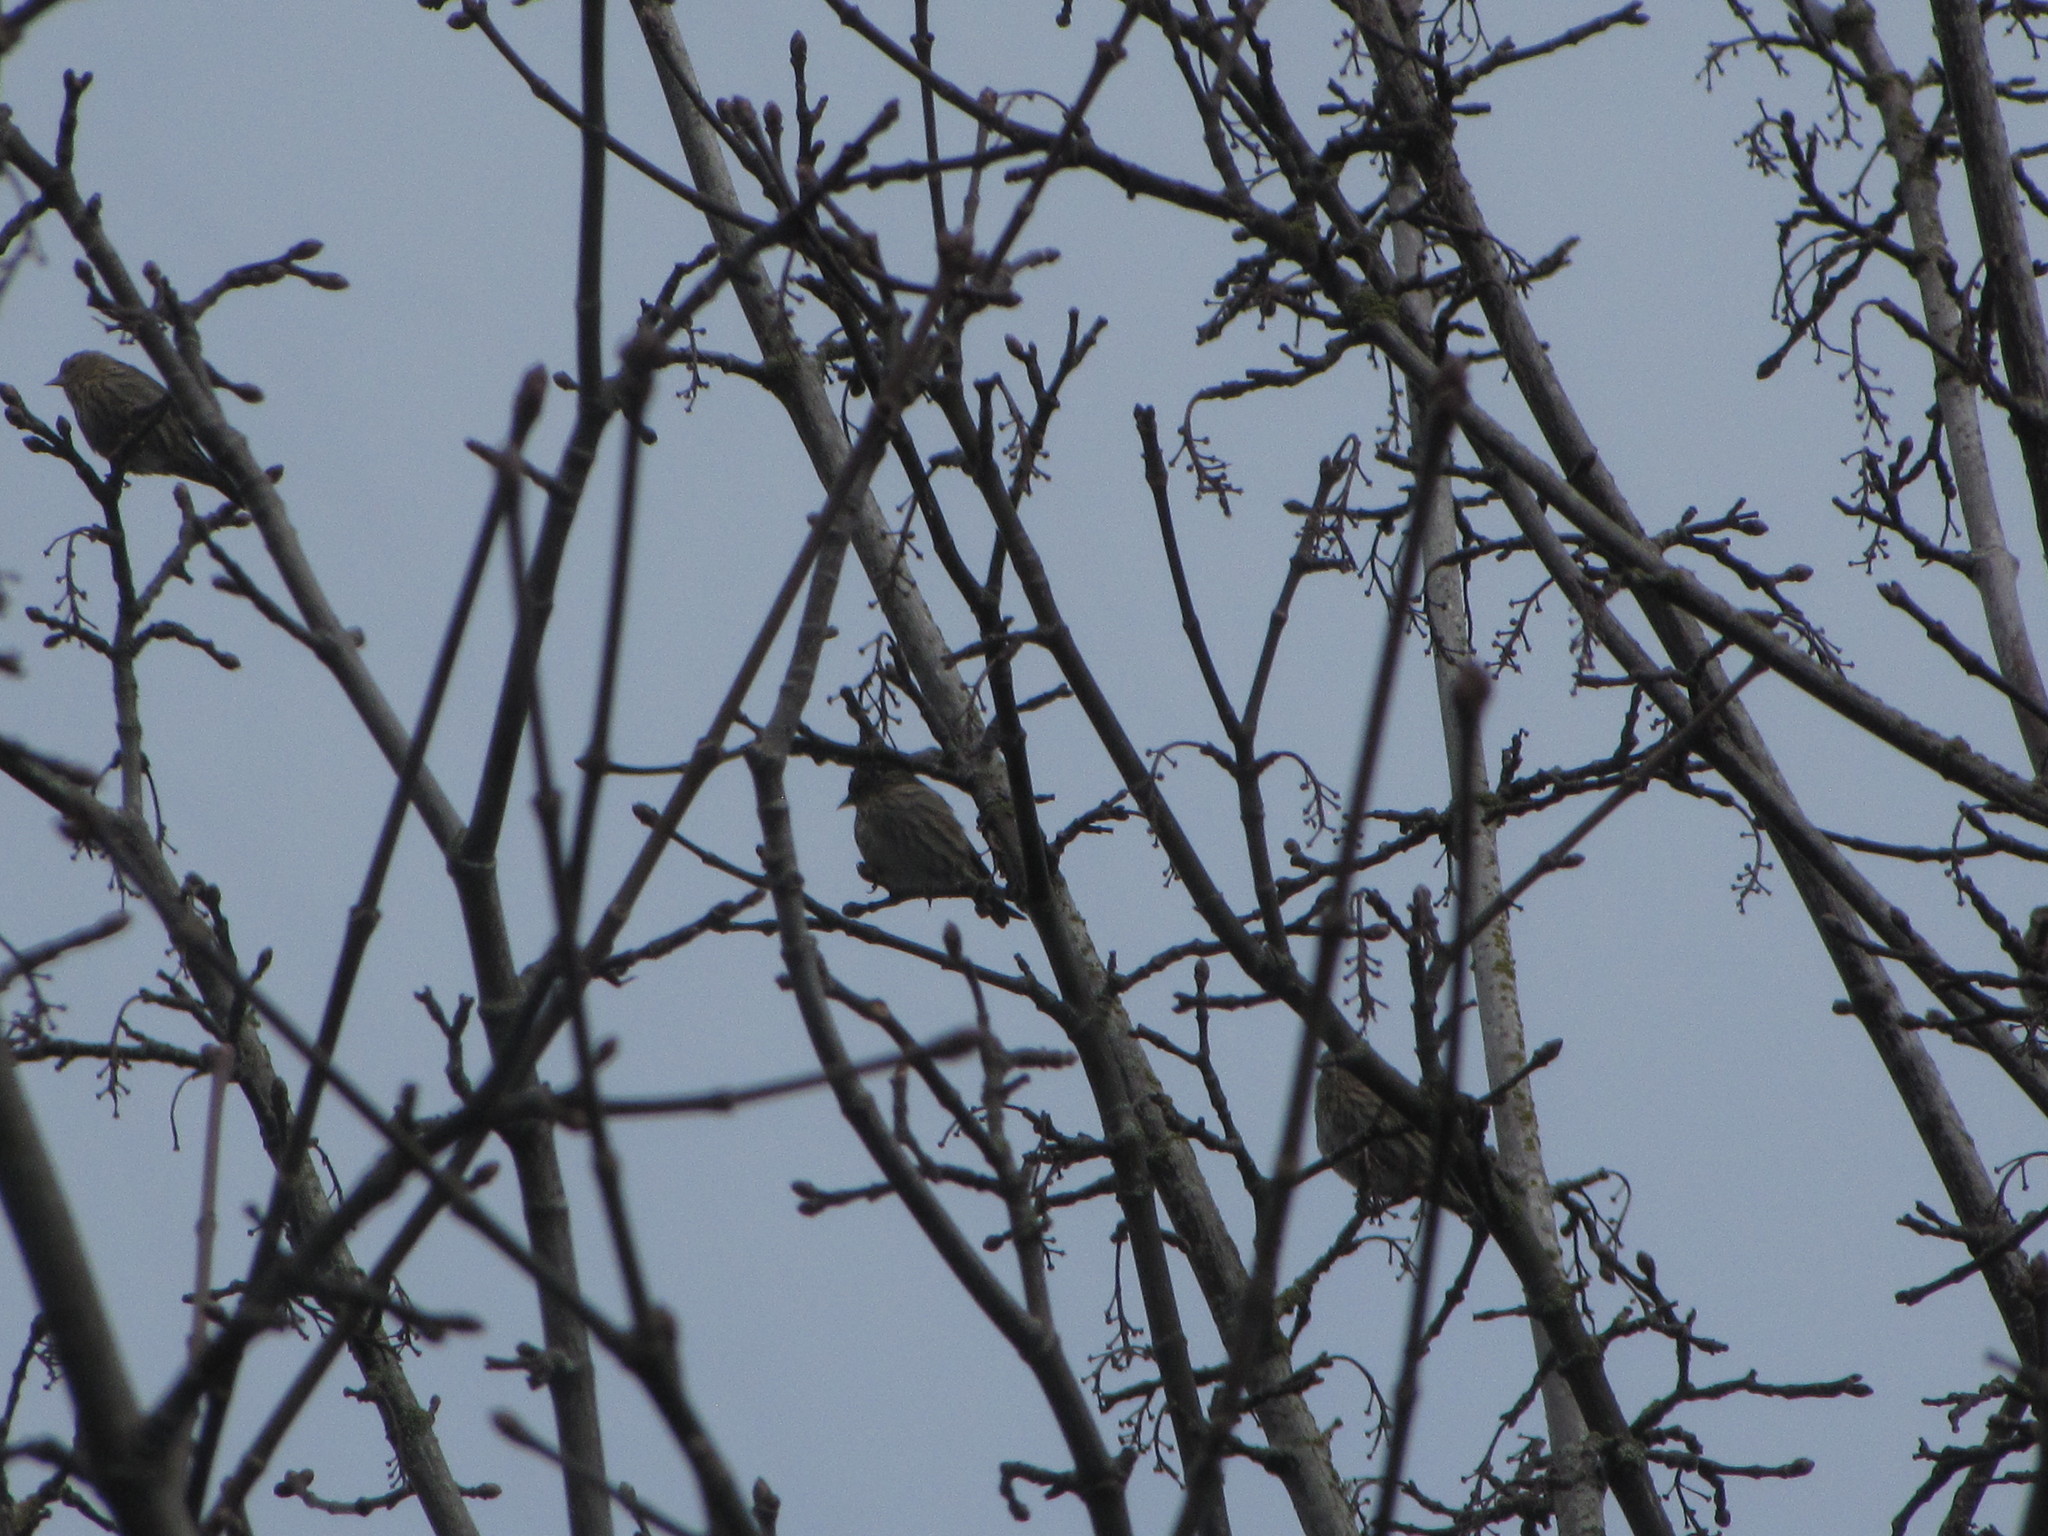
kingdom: Animalia
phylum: Chordata
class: Aves
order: Passeriformes
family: Fringillidae
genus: Spinus
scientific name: Spinus pinus
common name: Pine siskin
